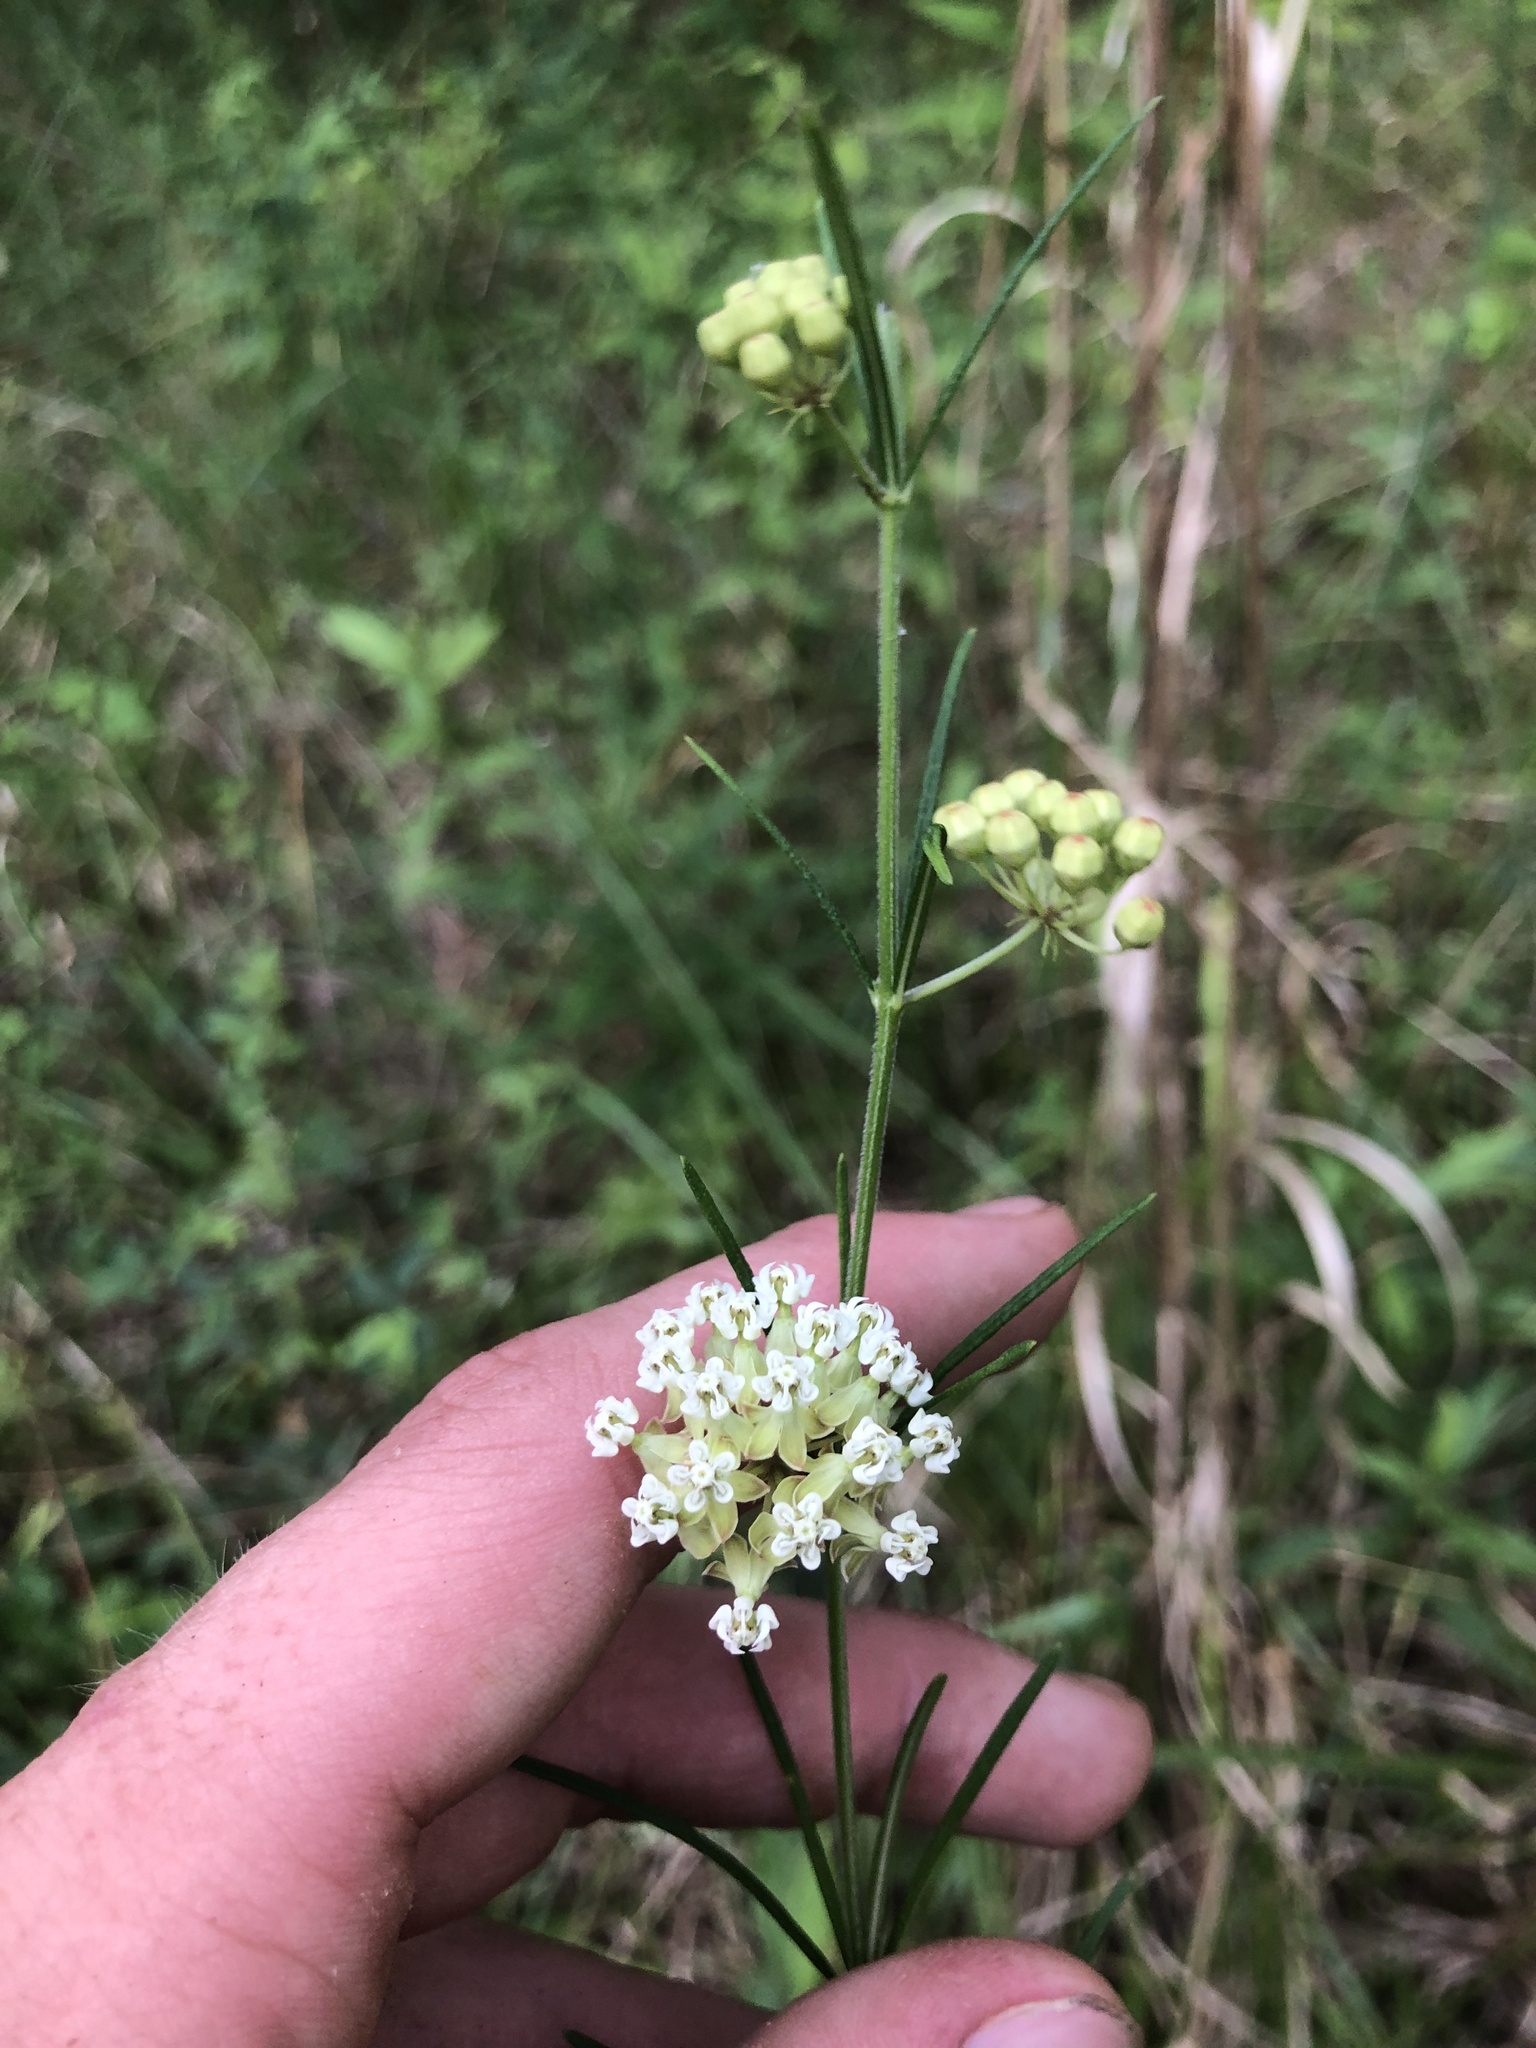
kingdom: Plantae
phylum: Tracheophyta
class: Magnoliopsida
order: Gentianales
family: Apocynaceae
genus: Asclepias
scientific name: Asclepias verticillata
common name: Eastern whorled milkweed
